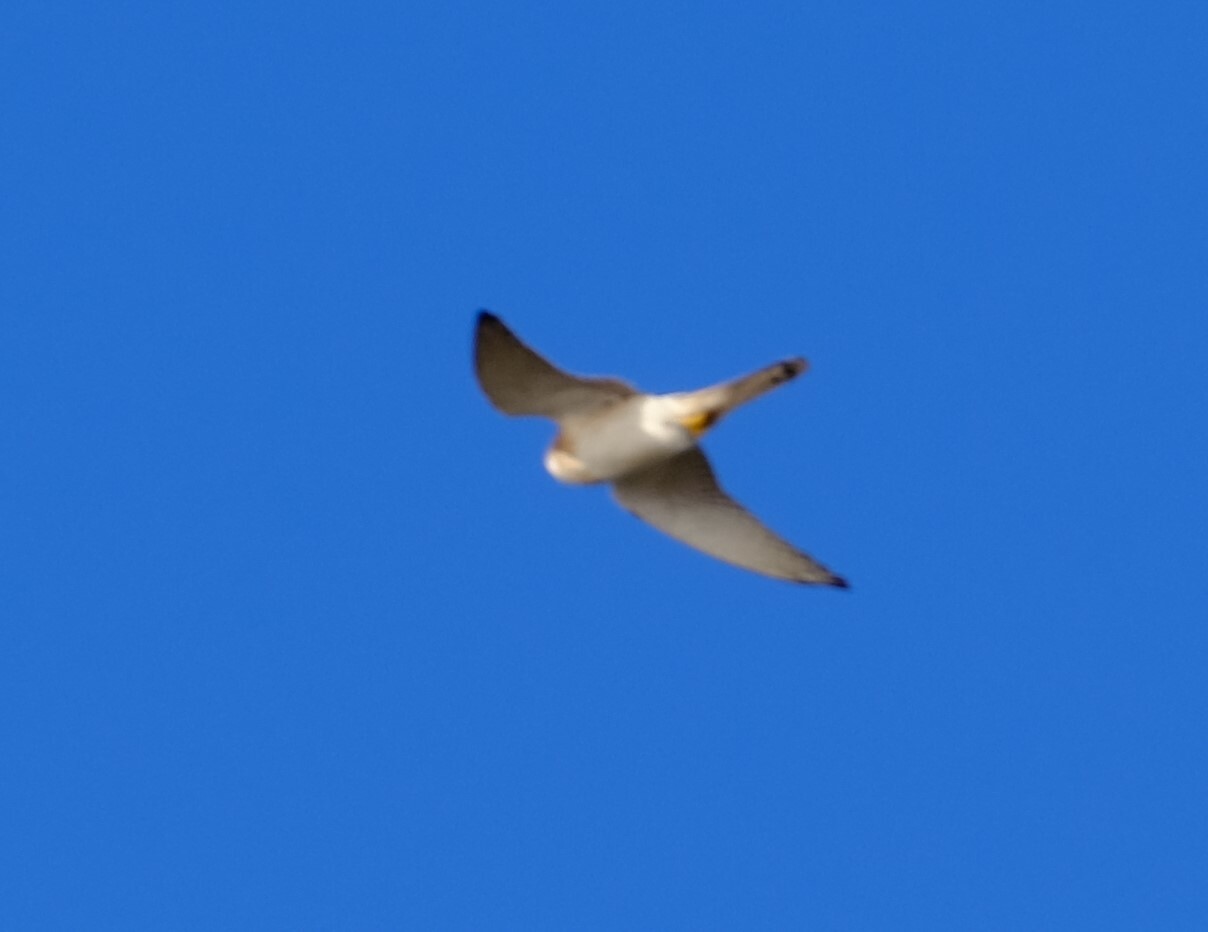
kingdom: Animalia
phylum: Chordata
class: Aves
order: Falconiformes
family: Falconidae
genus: Falco
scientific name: Falco cenchroides
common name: Nankeen kestrel
